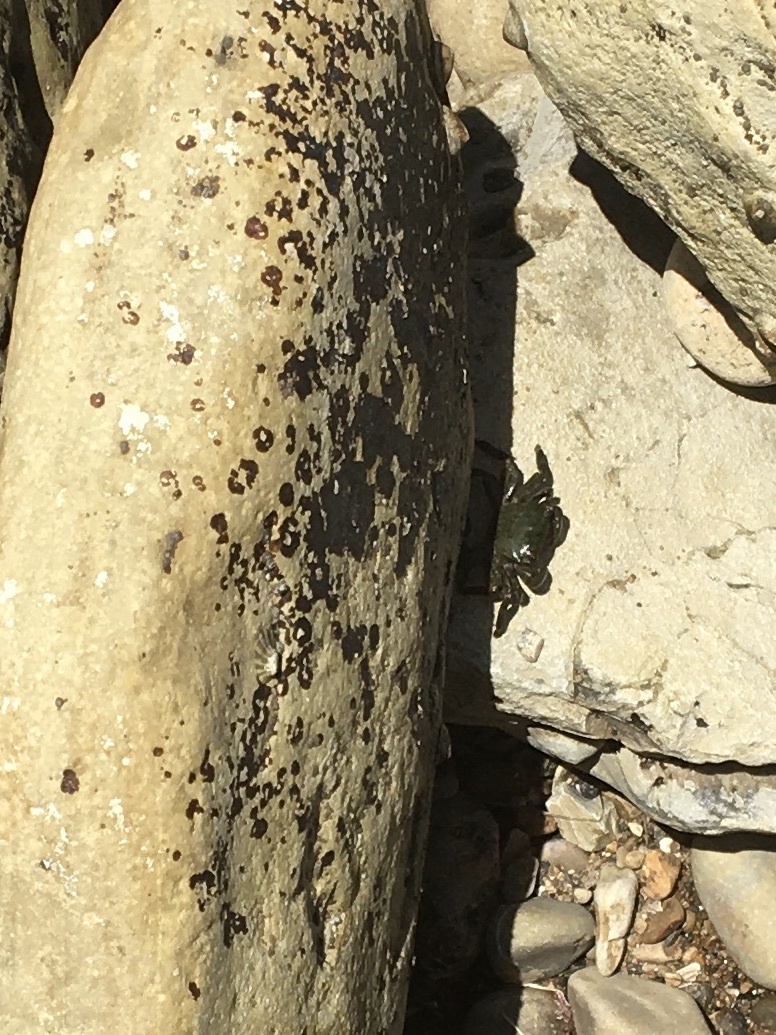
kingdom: Animalia
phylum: Arthropoda
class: Malacostraca
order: Decapoda
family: Grapsidae
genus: Pachygrapsus
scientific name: Pachygrapsus crassipes
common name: Striped shore crab
